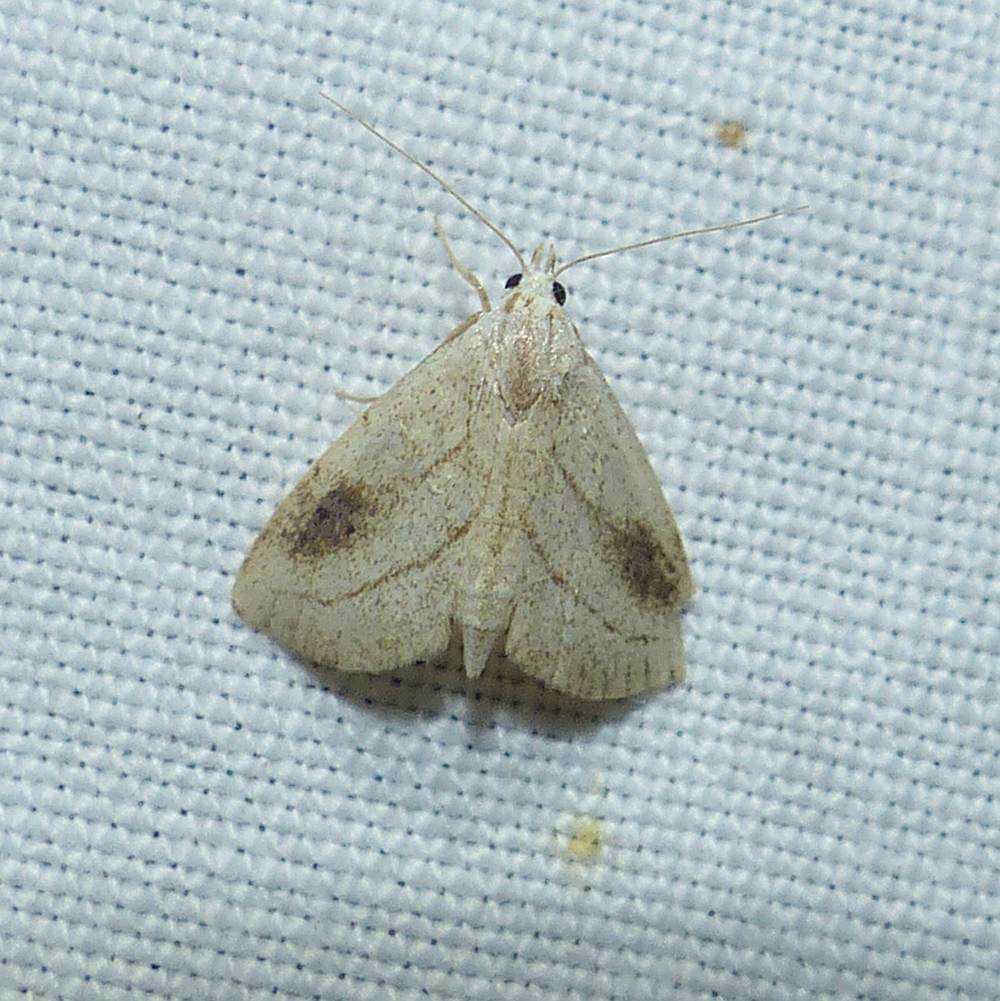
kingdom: Animalia
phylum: Arthropoda
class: Insecta
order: Lepidoptera
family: Erebidae
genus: Rivula
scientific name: Rivula propinqualis
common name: Spotted grass moth
